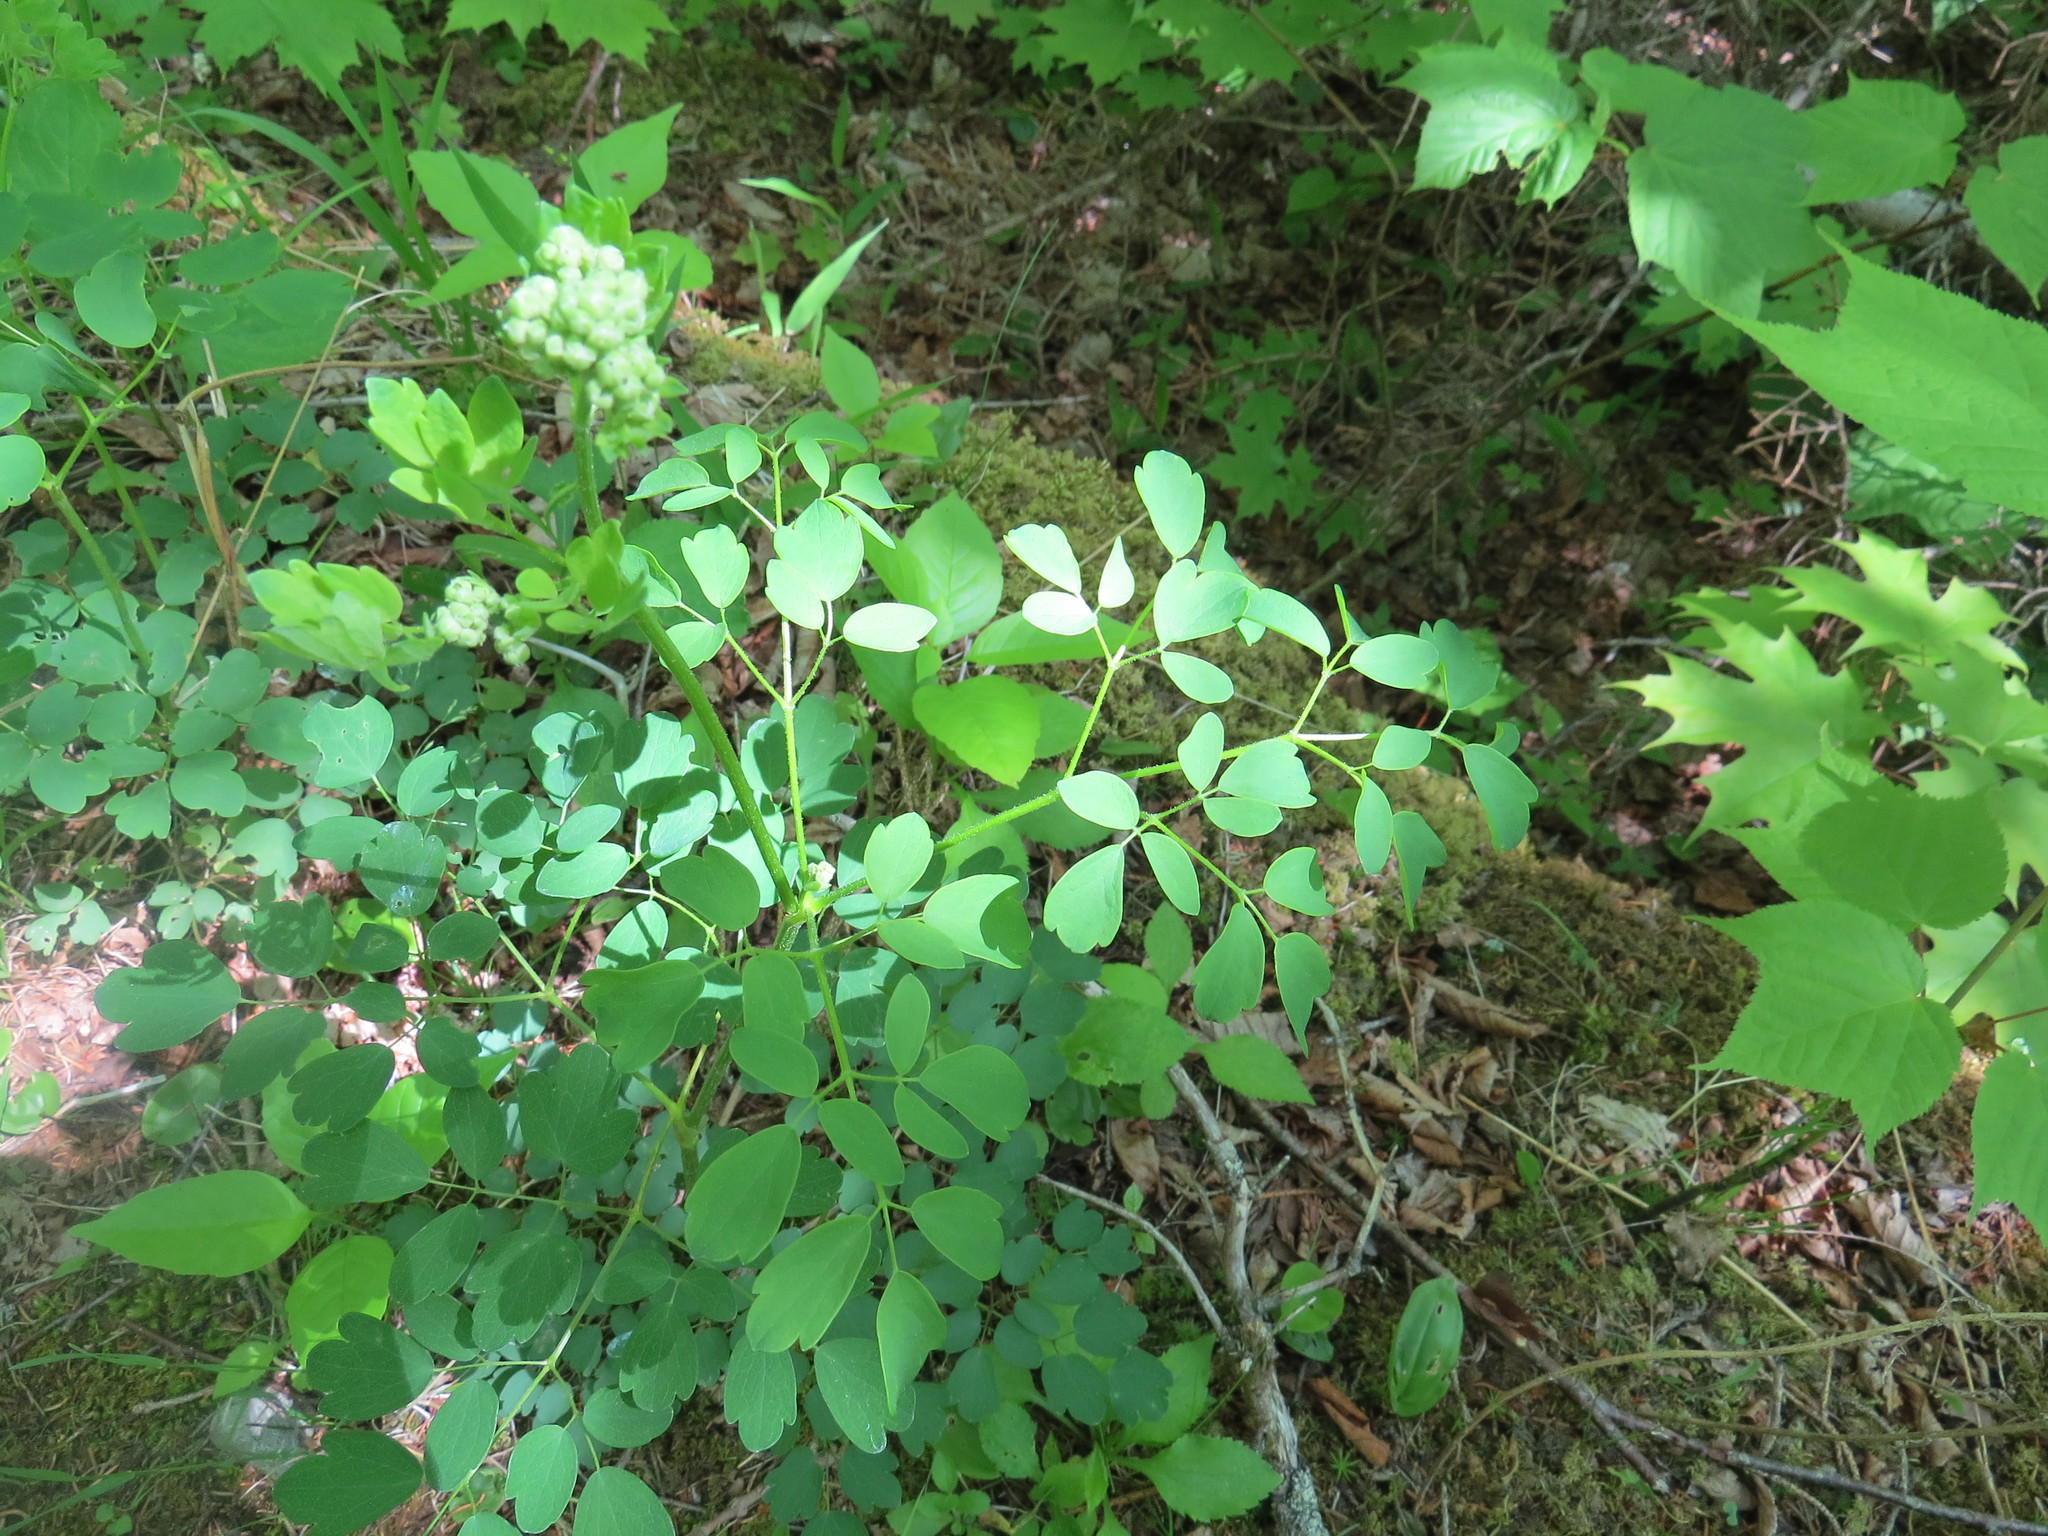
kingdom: Plantae
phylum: Tracheophyta
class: Magnoliopsida
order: Ranunculales
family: Ranunculaceae
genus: Thalictrum
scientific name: Thalictrum pubescens
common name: King-of-the-meadow
